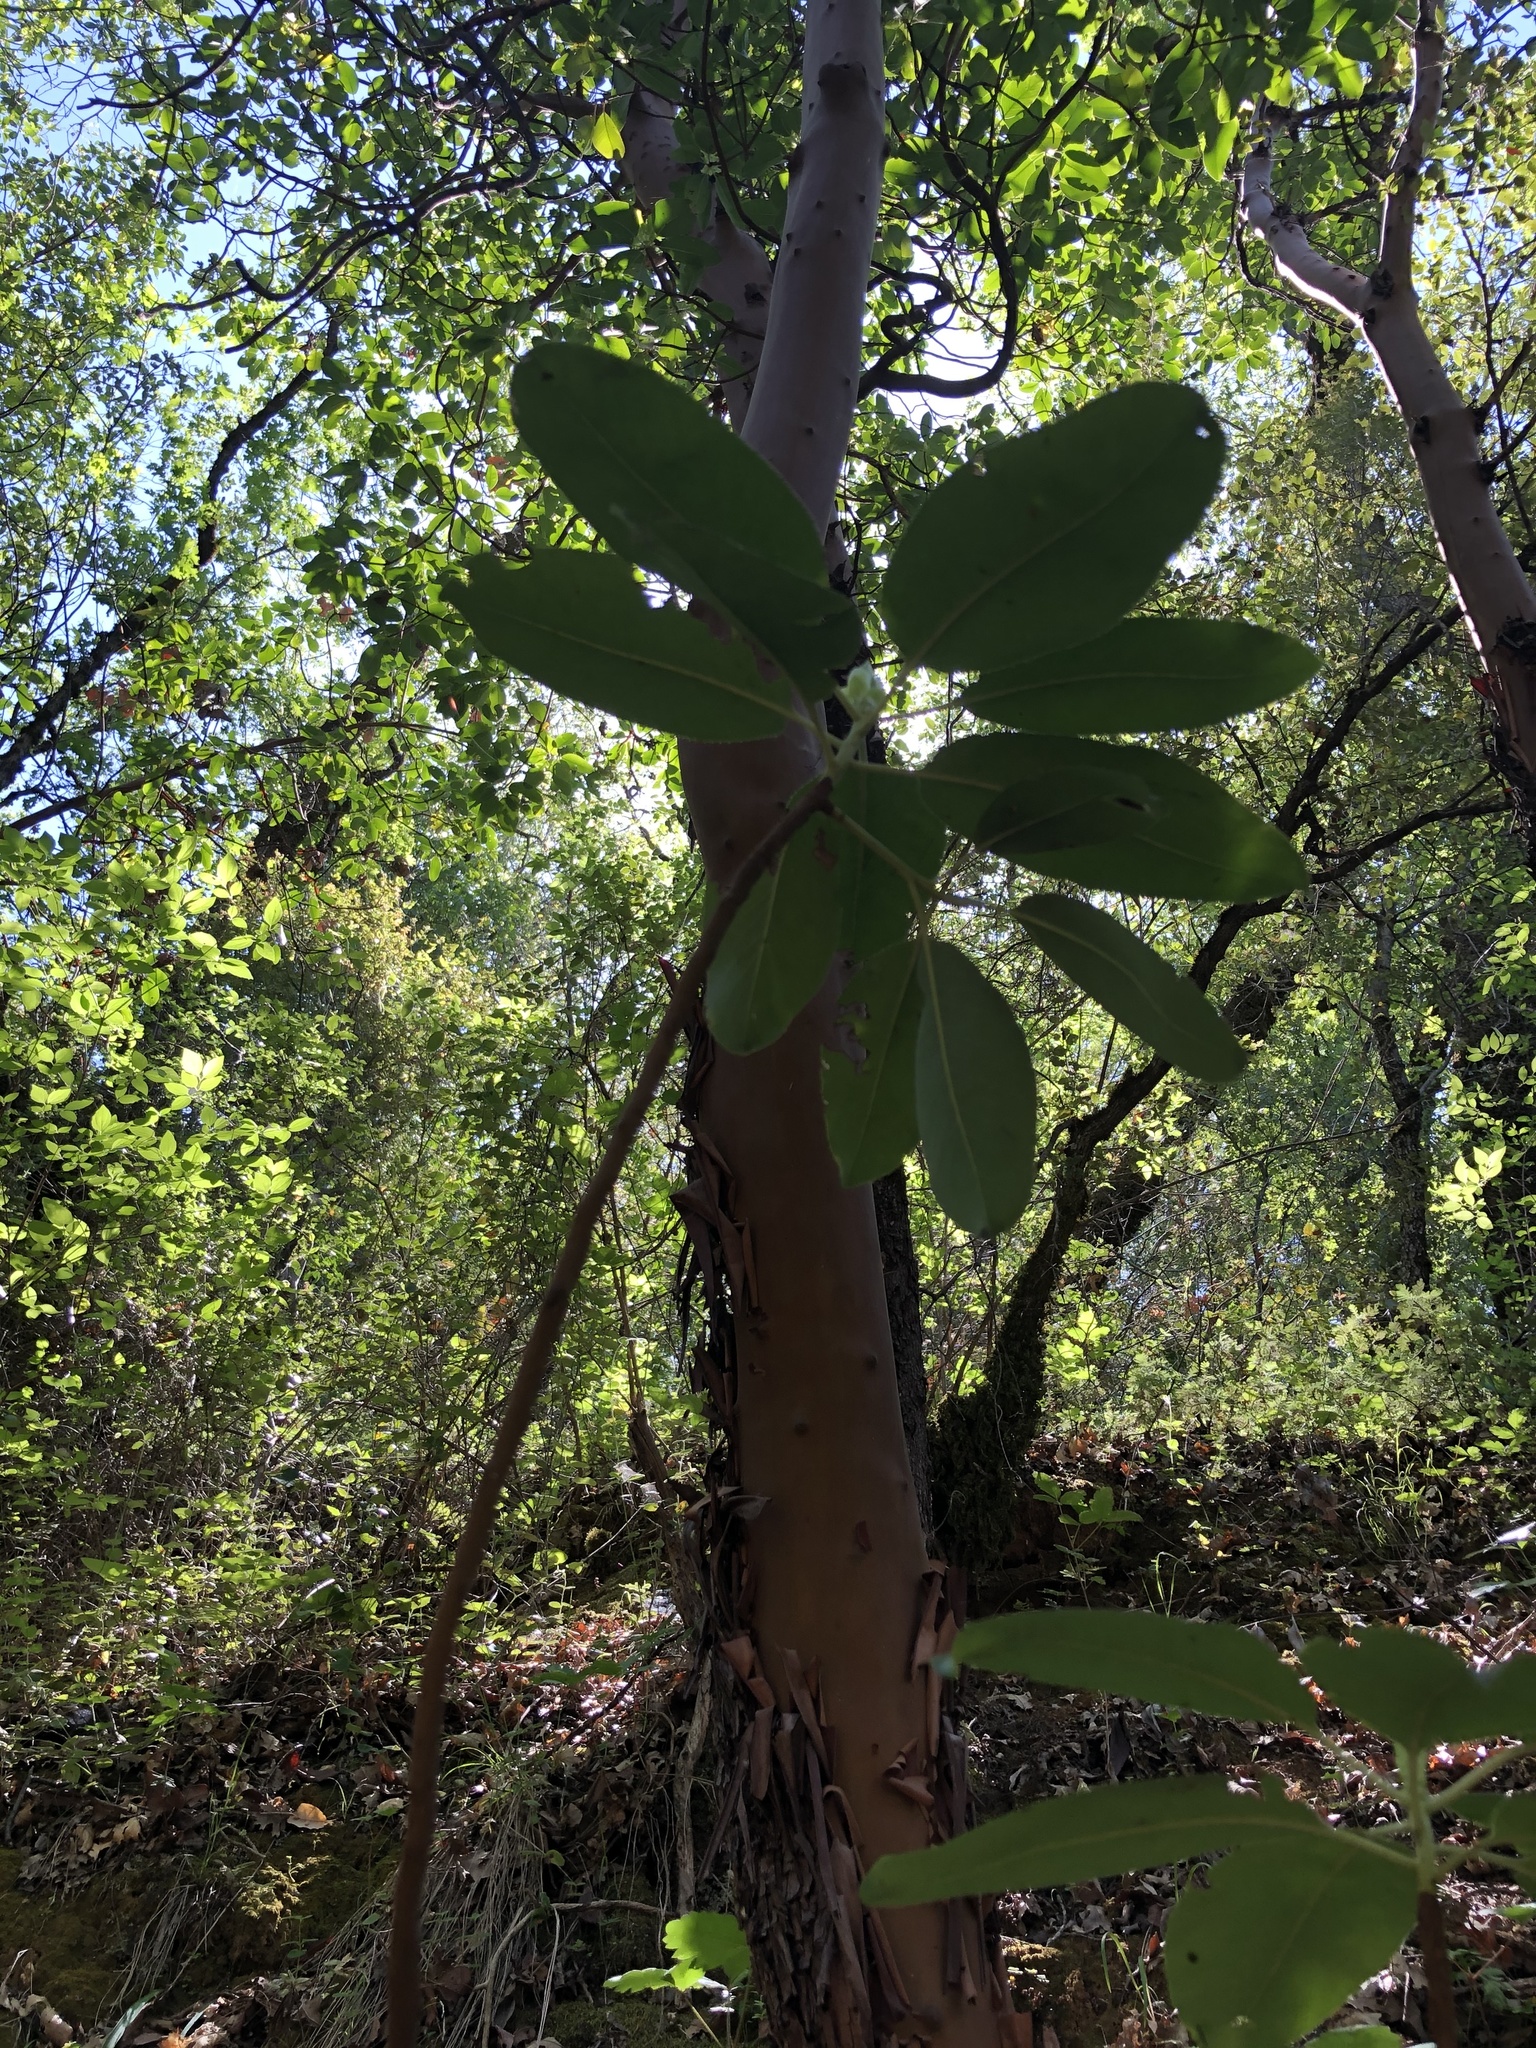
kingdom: Plantae
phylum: Tracheophyta
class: Magnoliopsida
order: Ericales
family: Ericaceae
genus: Arbutus
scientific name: Arbutus menziesii
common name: Pacific madrone
